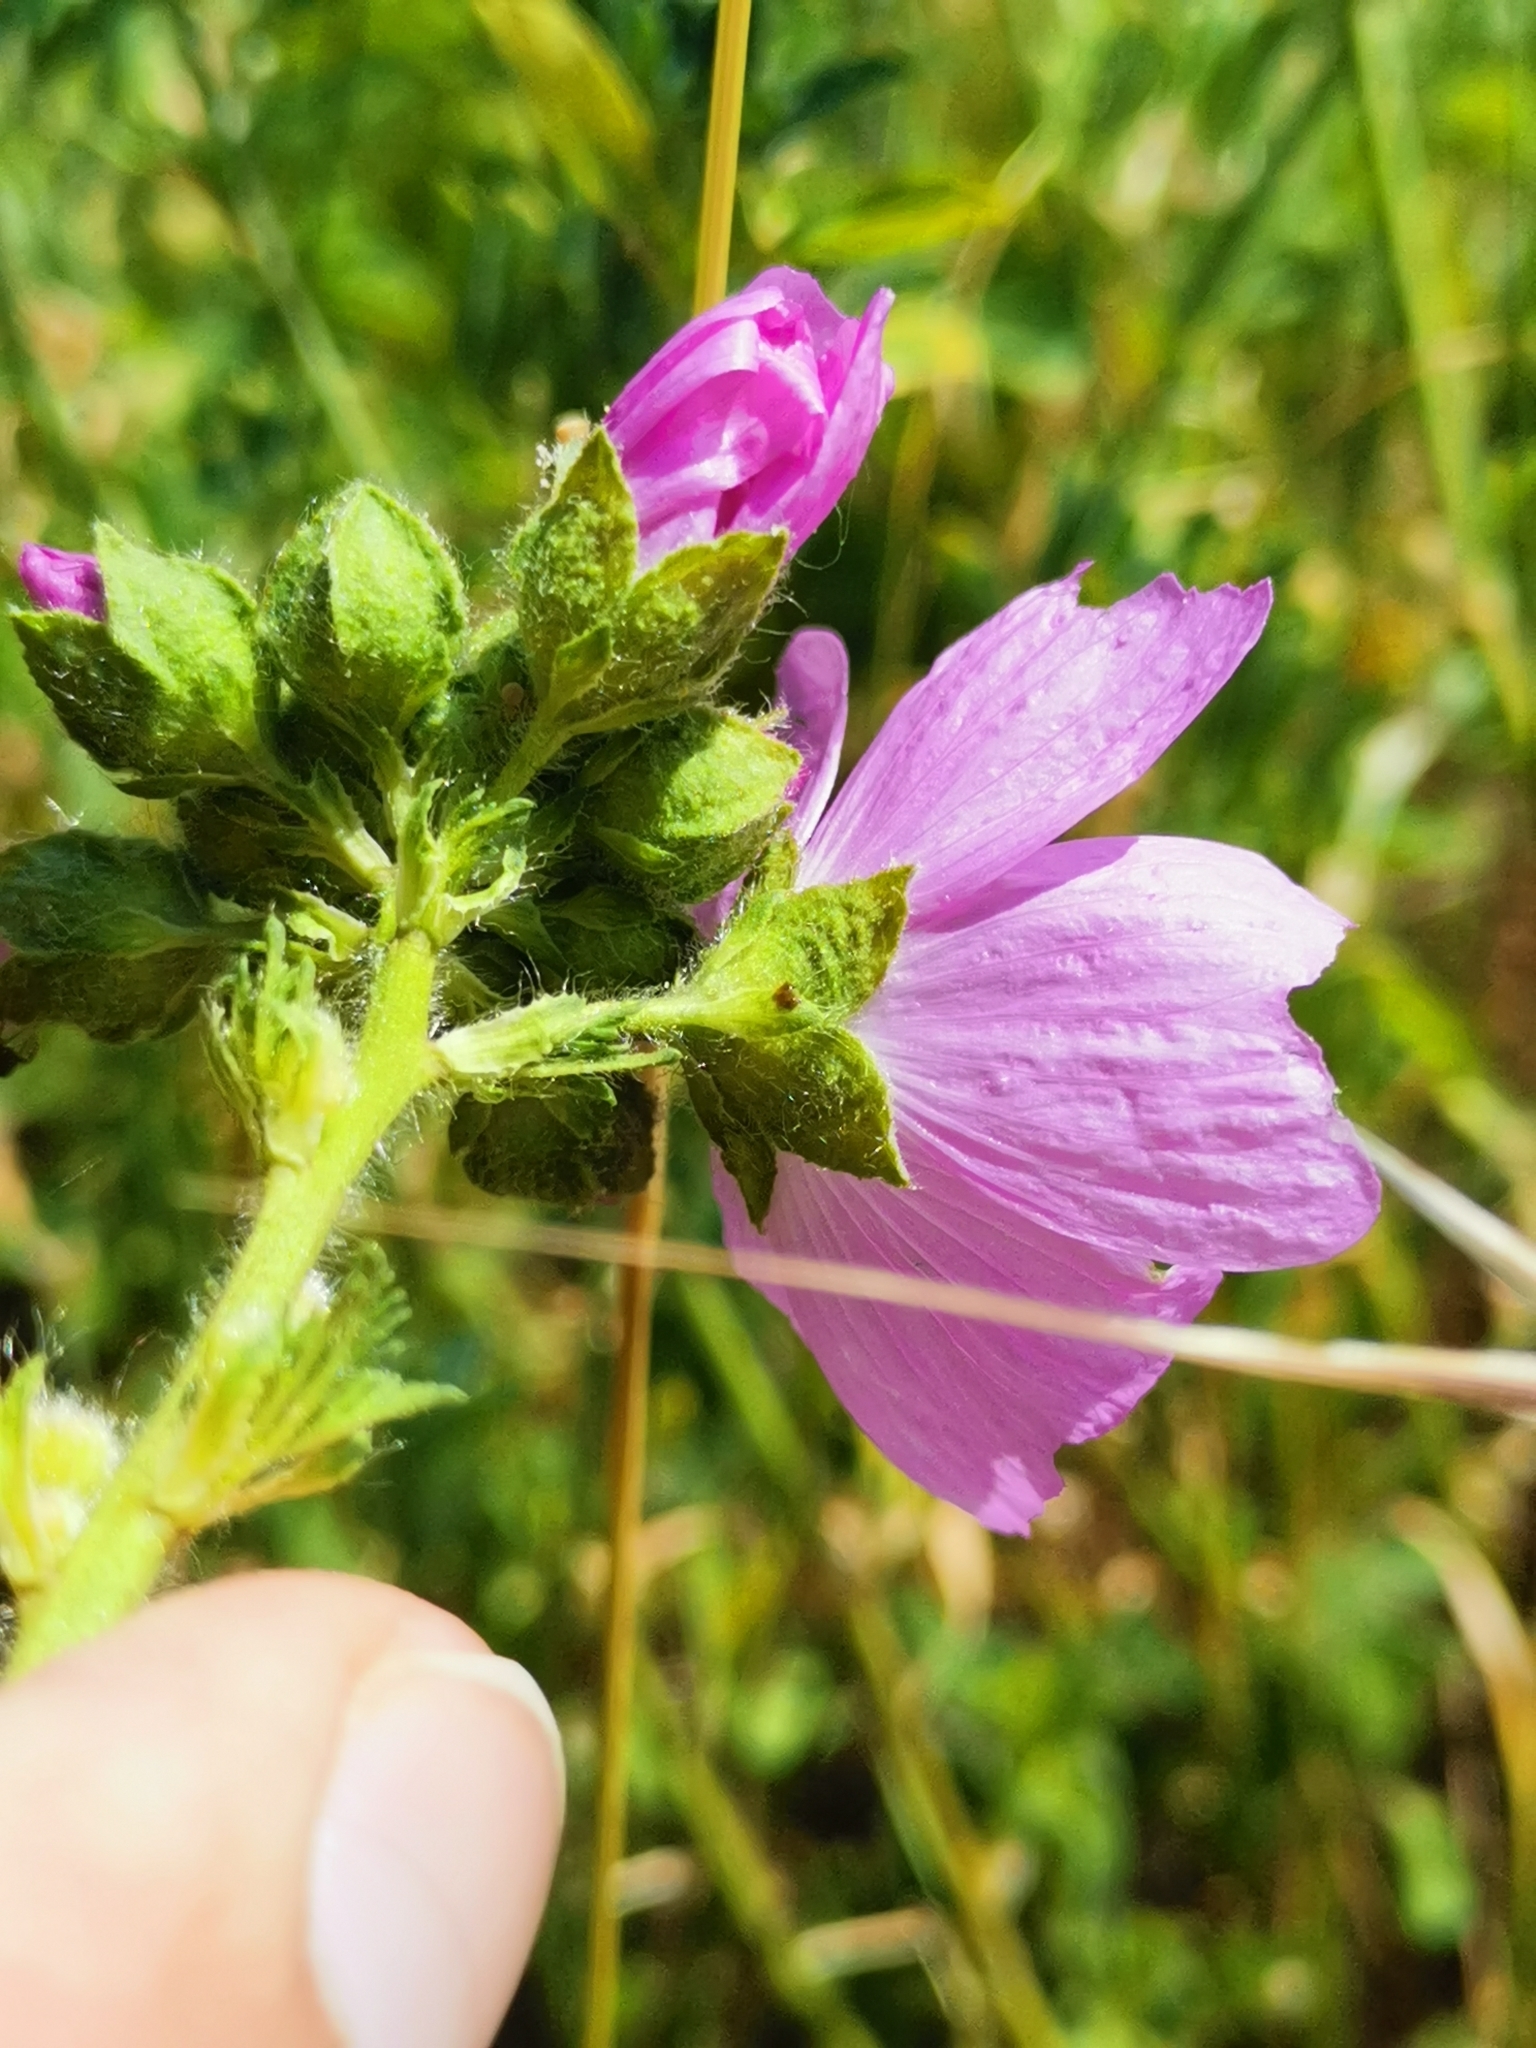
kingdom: Plantae
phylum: Tracheophyta
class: Magnoliopsida
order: Malvales
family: Malvaceae
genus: Malva
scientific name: Malva moschata
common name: Musk mallow
